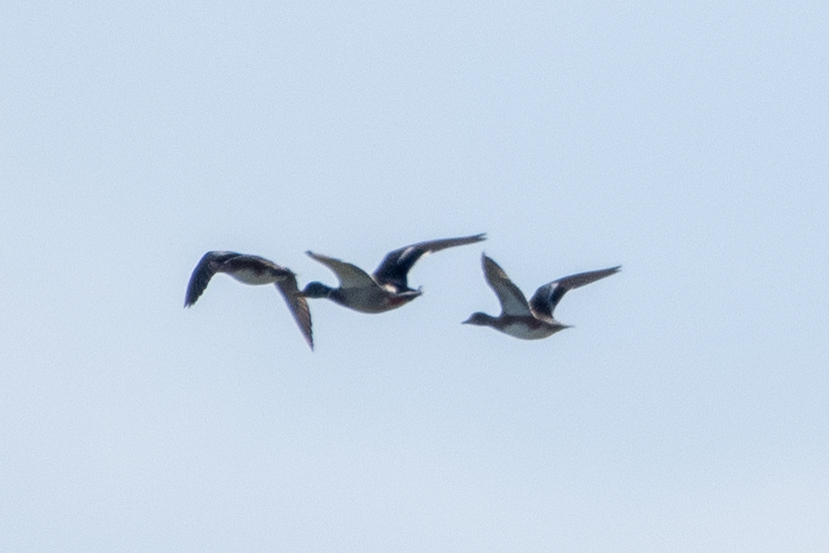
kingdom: Animalia
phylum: Chordata
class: Aves
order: Anseriformes
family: Anatidae
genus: Mareca
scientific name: Mareca americana
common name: American wigeon
